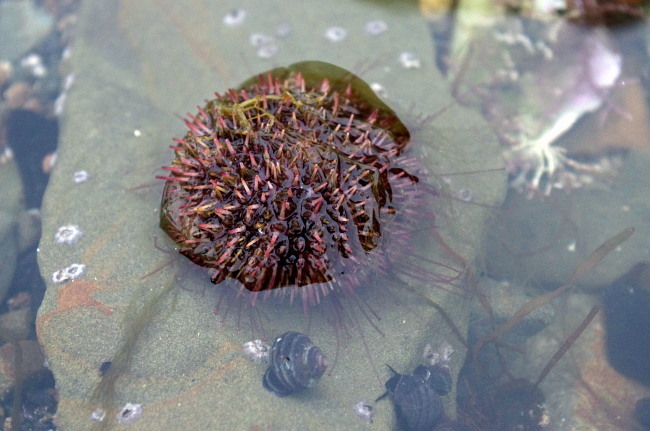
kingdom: Animalia
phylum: Echinodermata
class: Echinoidea
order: Camarodonta
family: Strongylocentrotidae
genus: Strongylocentrotus
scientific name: Strongylocentrotus intermedius
